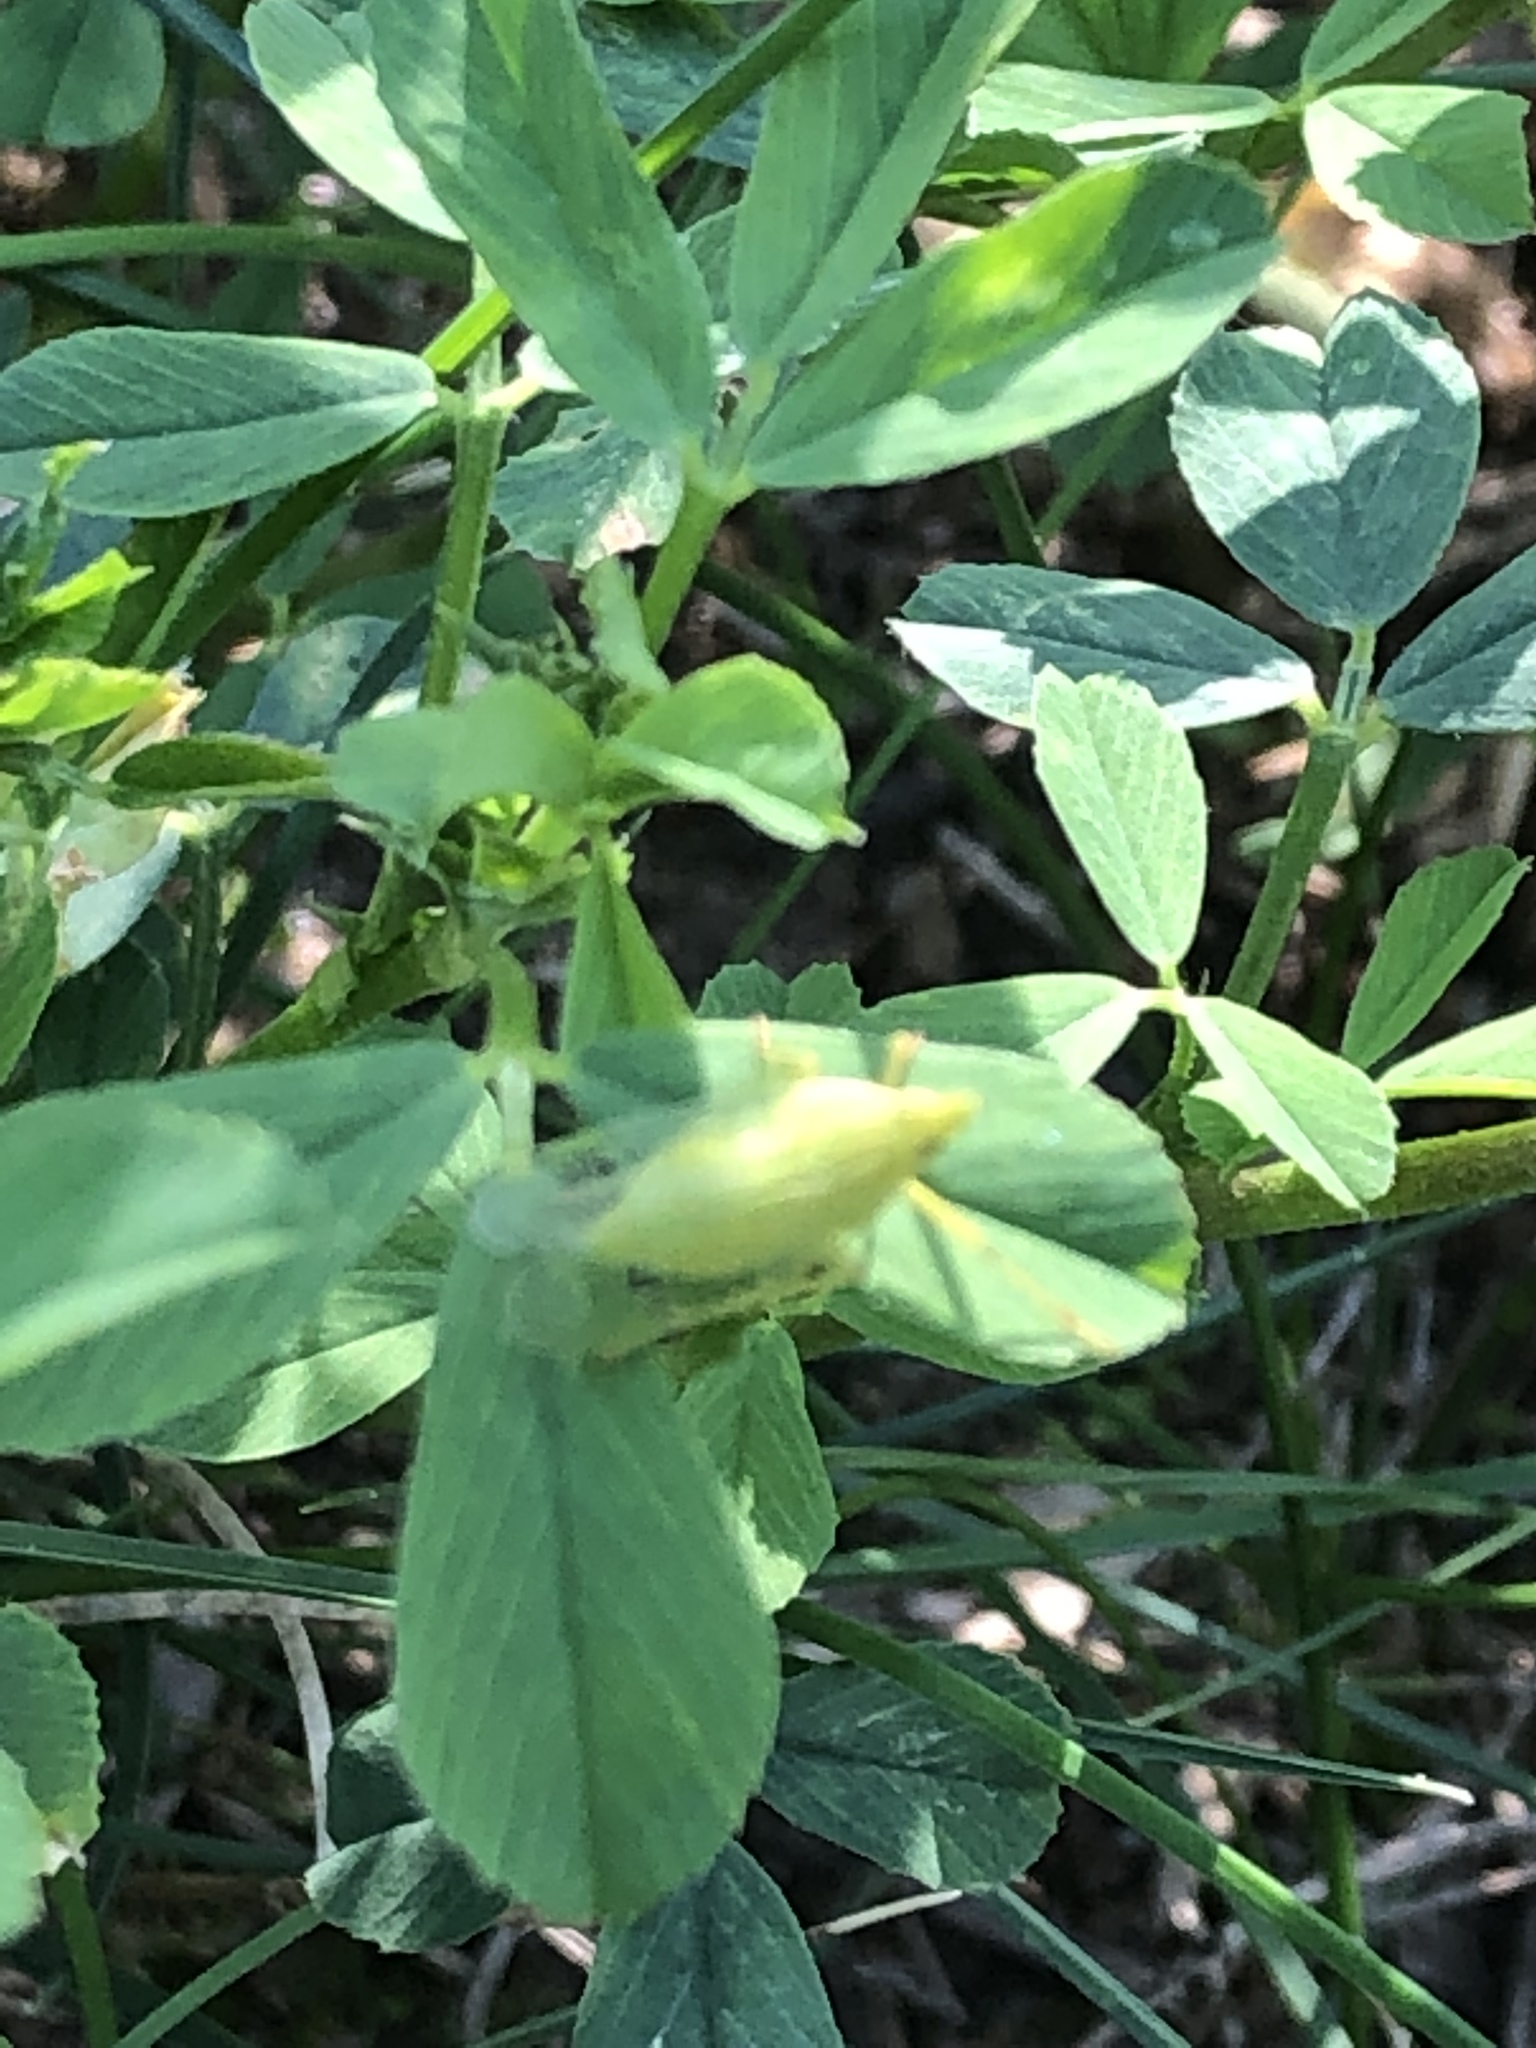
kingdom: Animalia
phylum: Arthropoda
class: Insecta
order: Hemiptera
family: Dictyopharidae
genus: Dictyophara
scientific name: Dictyophara europaea
